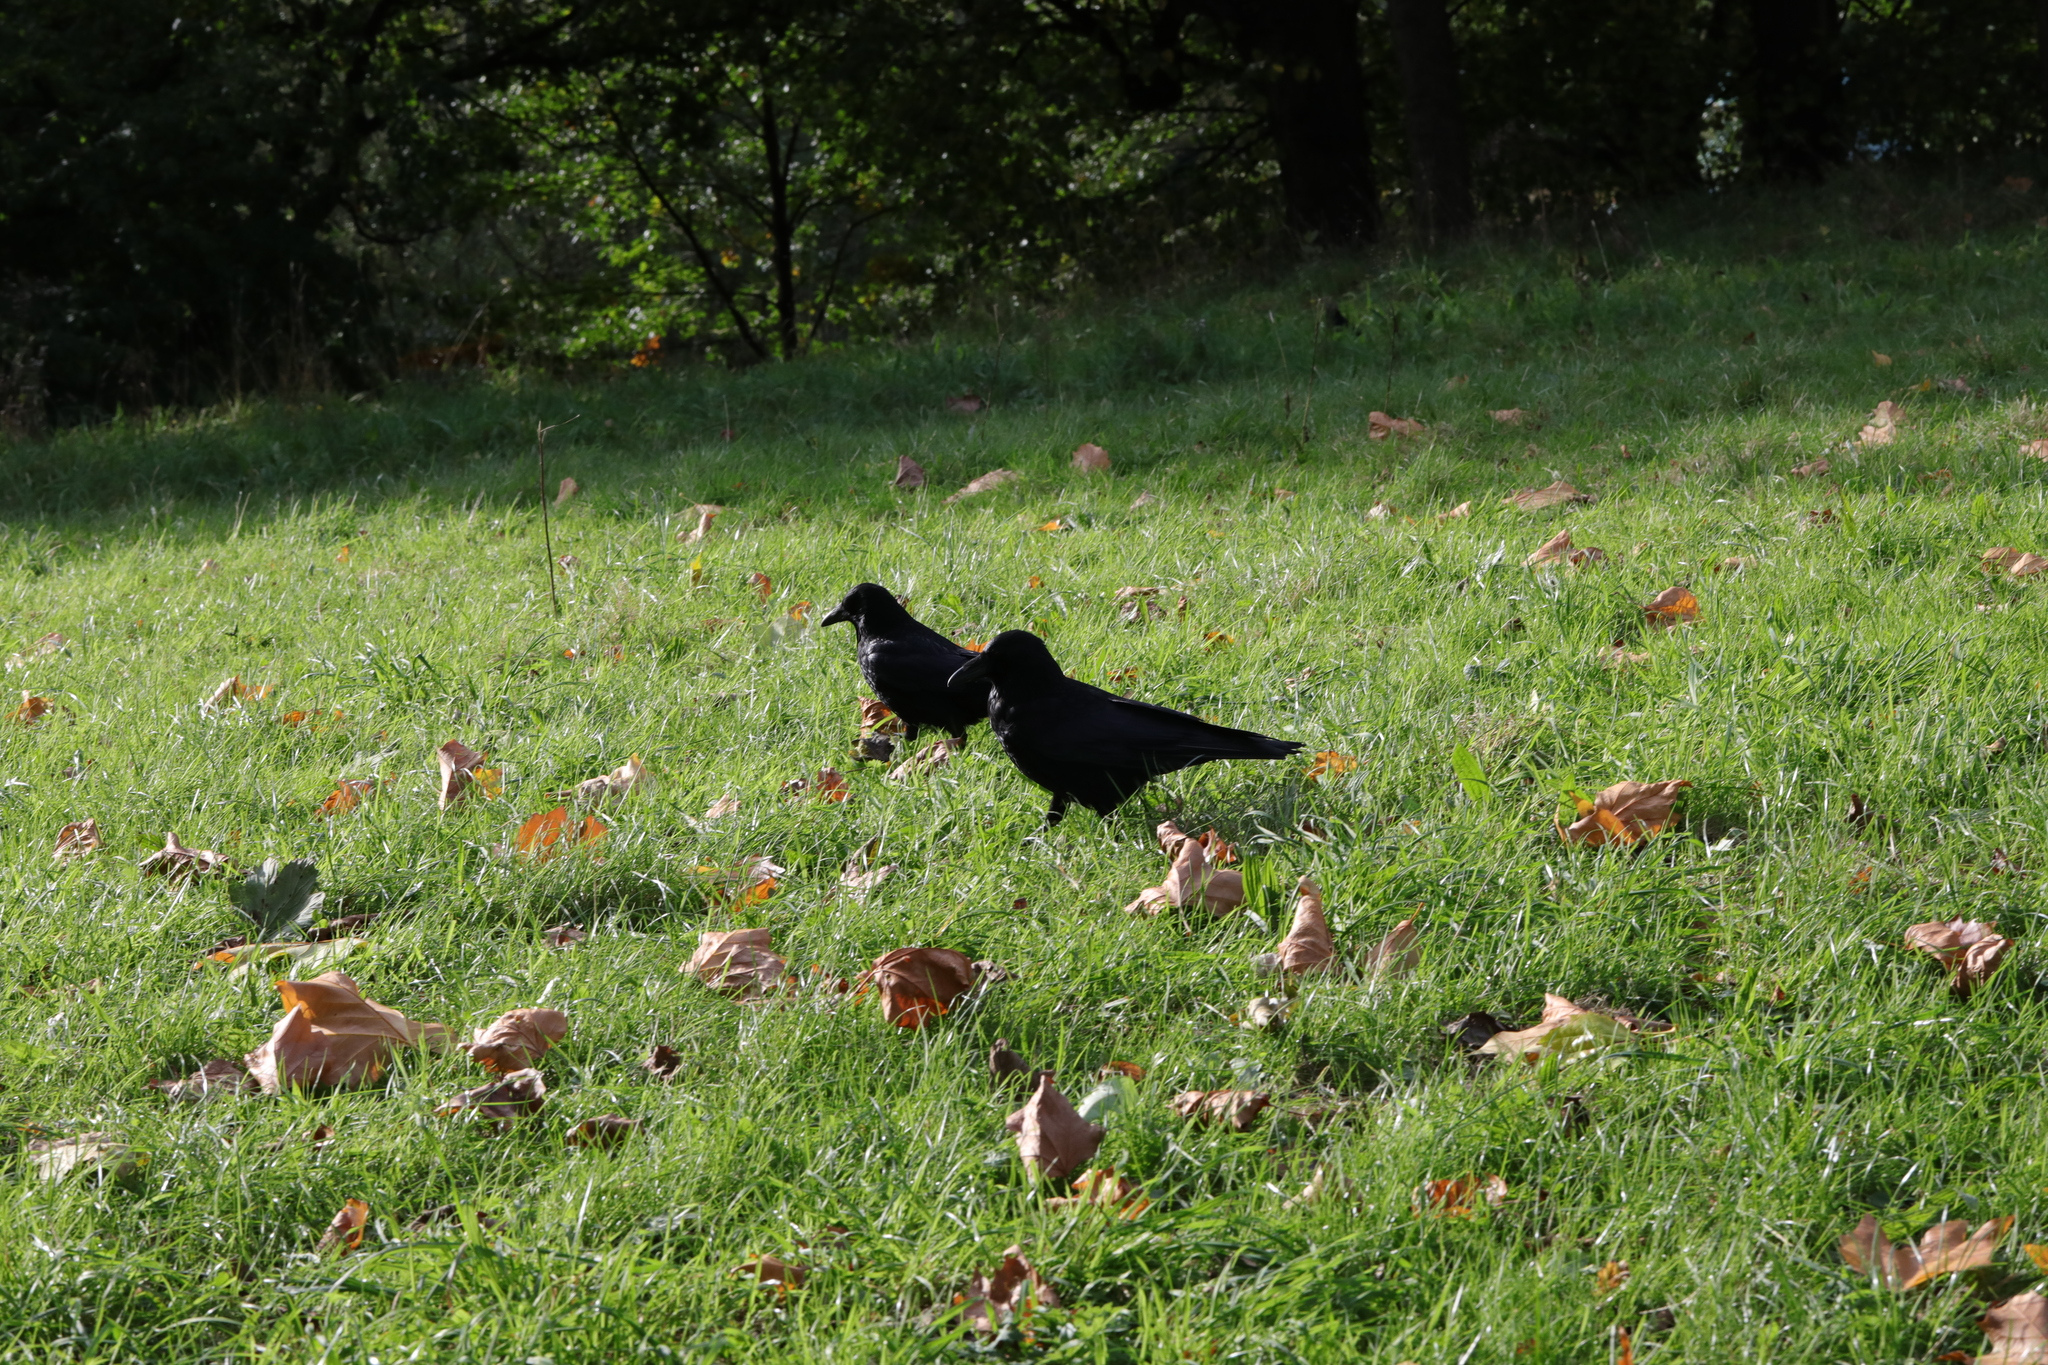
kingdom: Animalia
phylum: Chordata
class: Aves
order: Passeriformes
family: Corvidae
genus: Corvus
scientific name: Corvus corone
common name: Carrion crow
